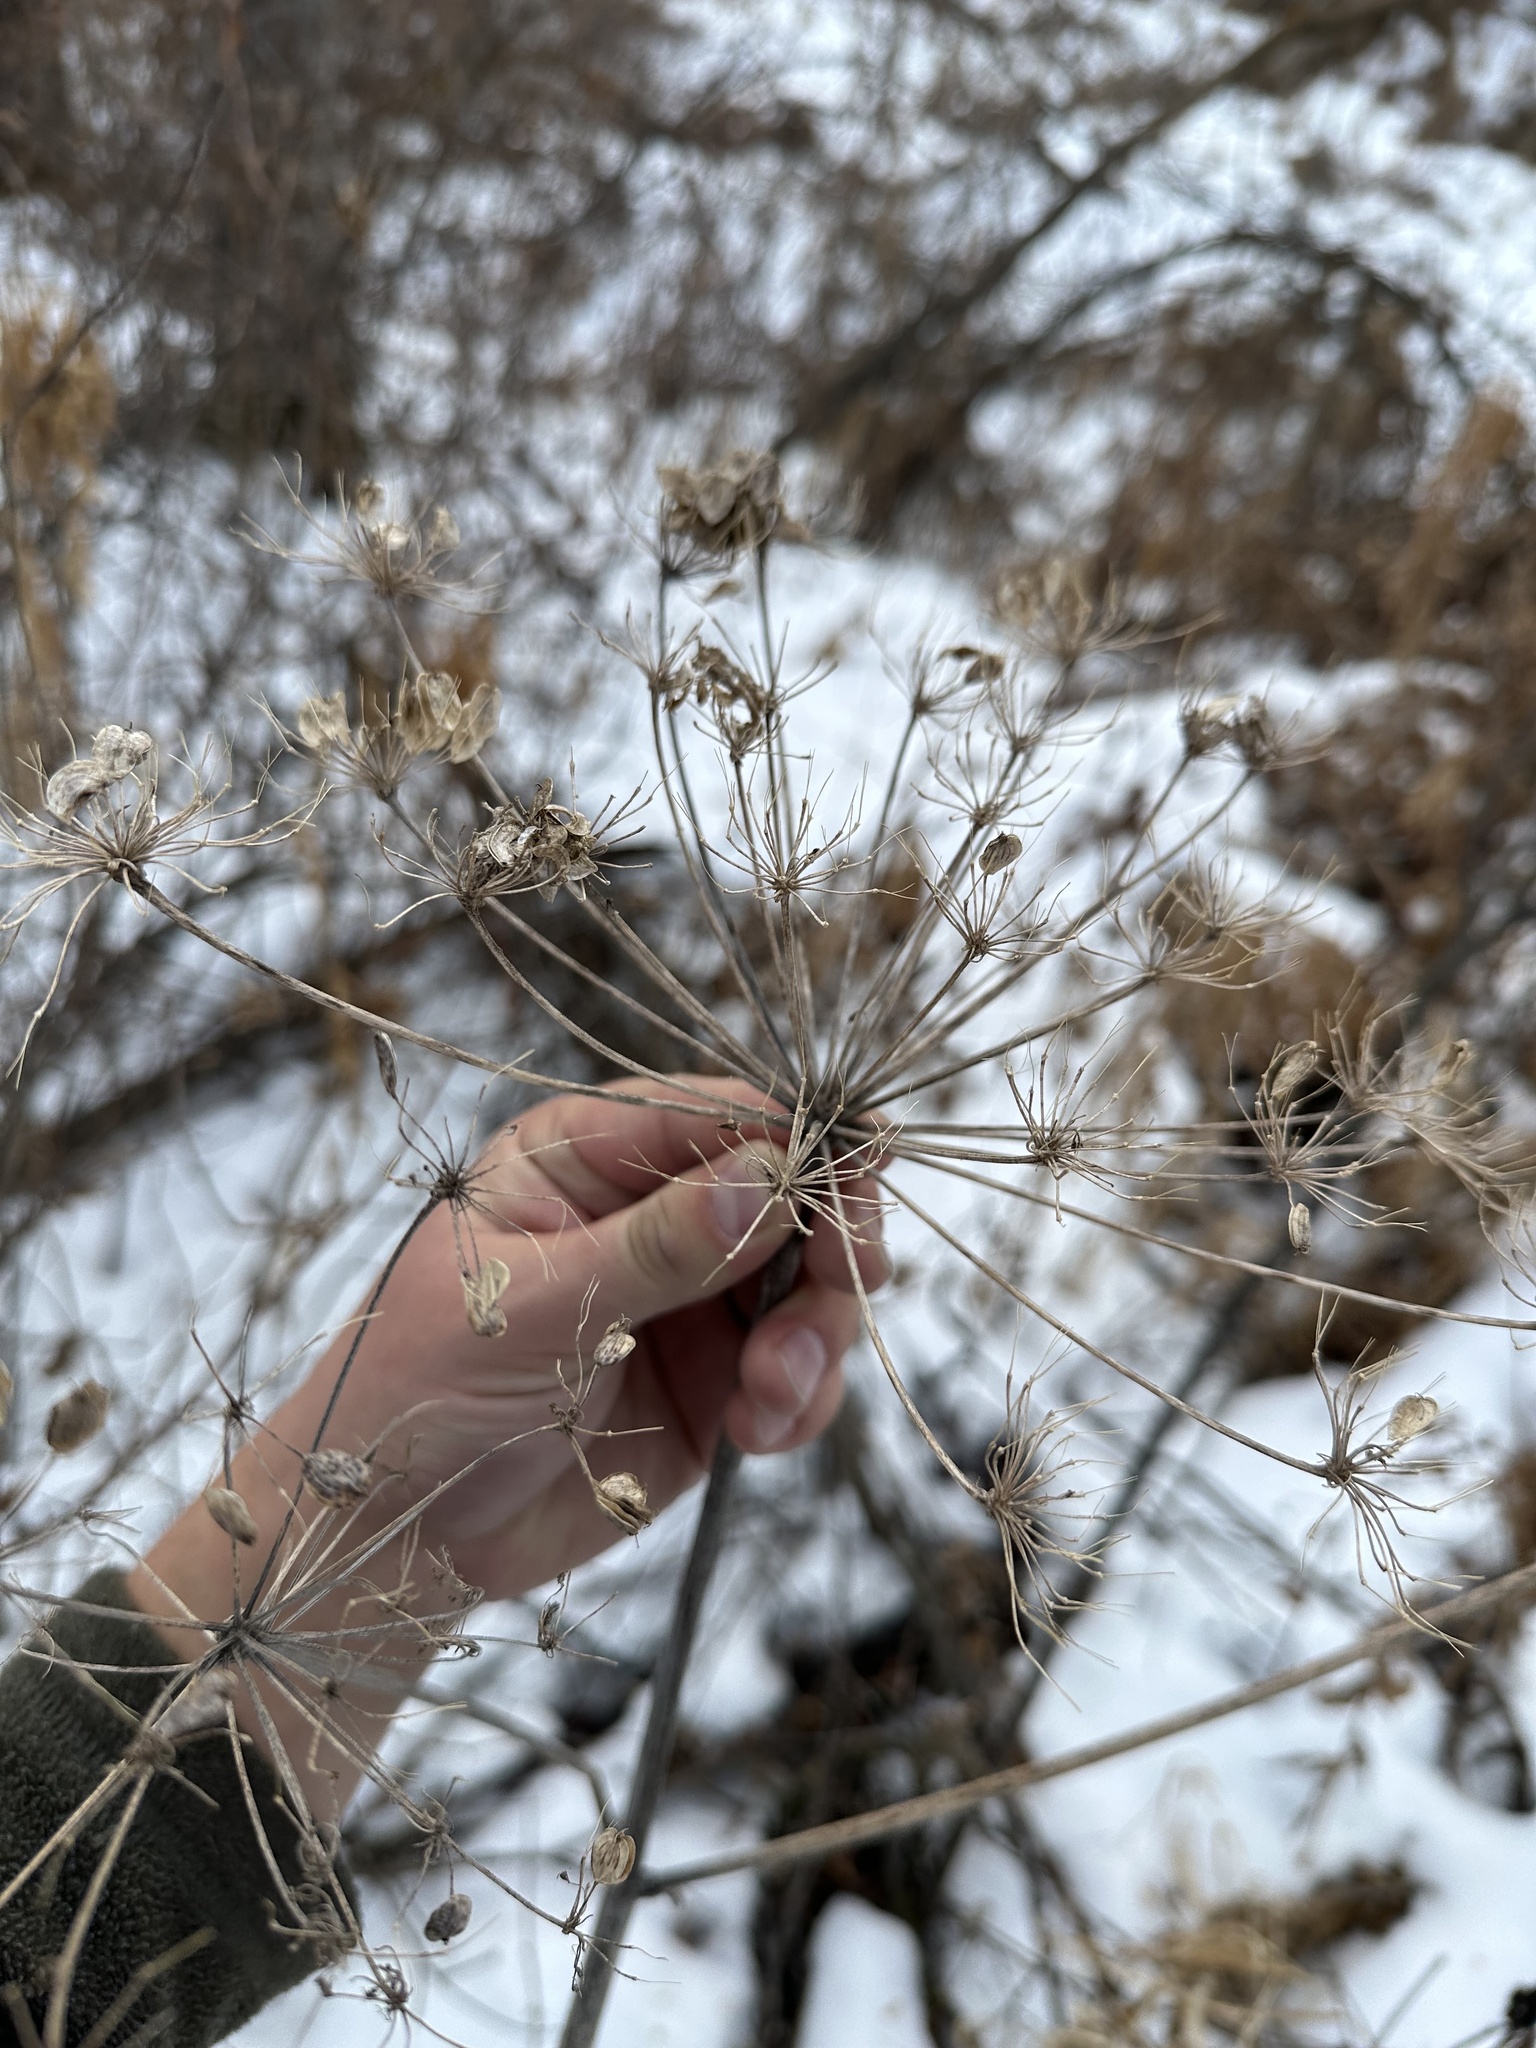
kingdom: Plantae
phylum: Tracheophyta
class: Magnoliopsida
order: Apiales
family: Apiaceae
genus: Heracleum
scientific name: Heracleum maximum
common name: American cow parsnip
